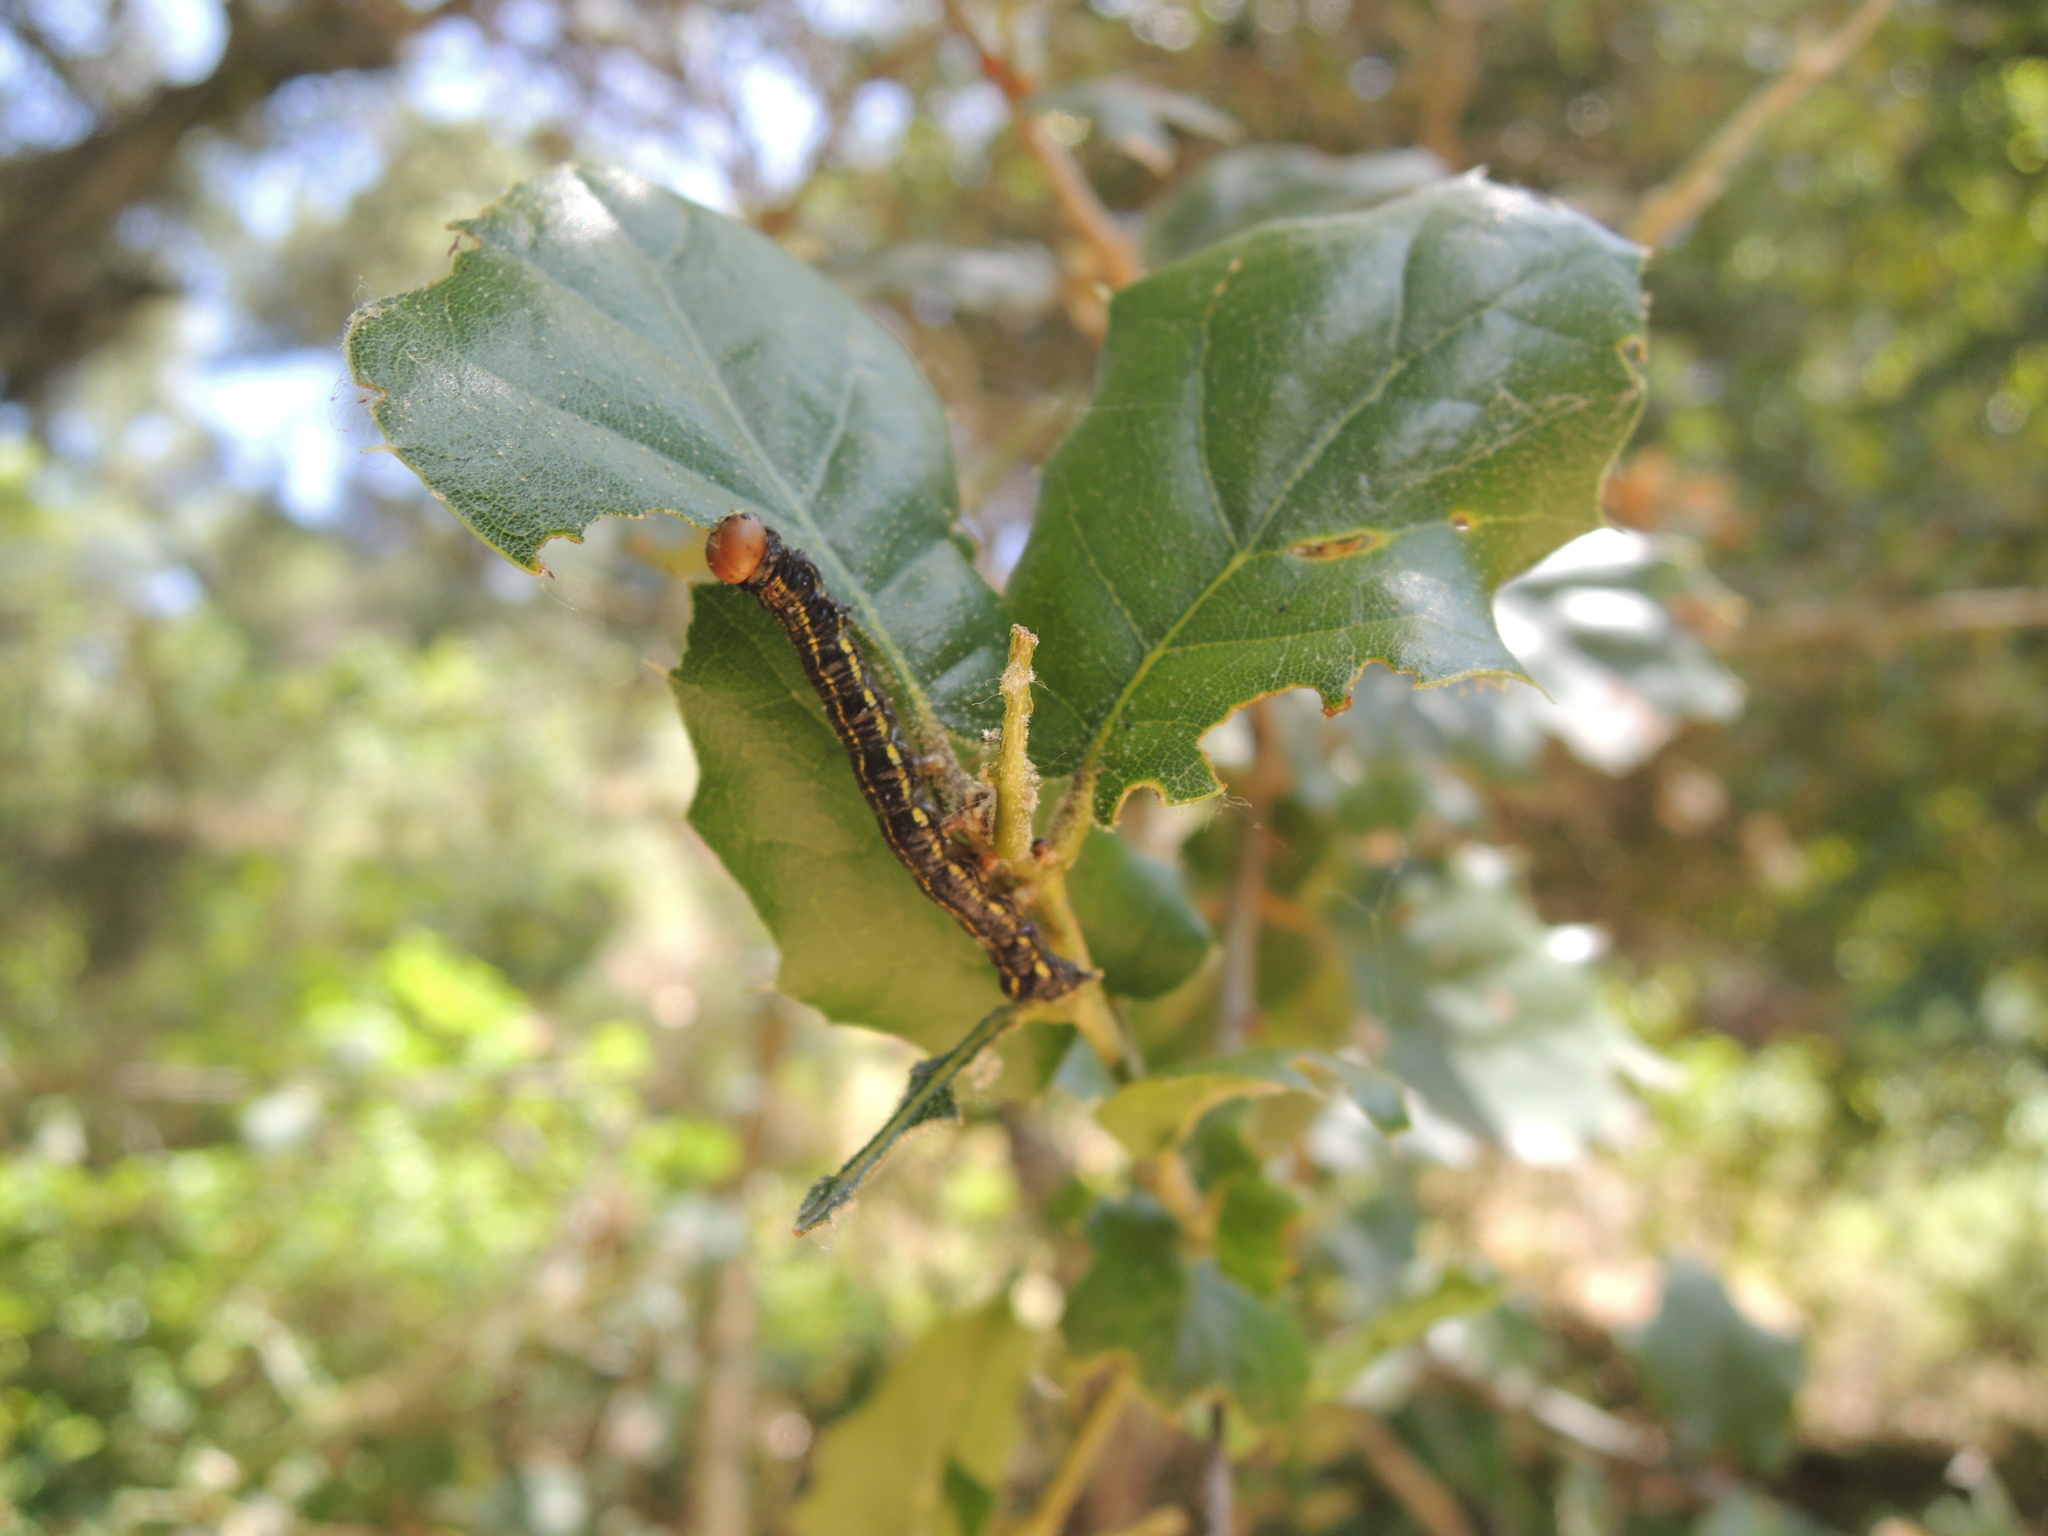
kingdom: Animalia
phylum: Arthropoda
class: Insecta
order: Lepidoptera
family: Notodontidae
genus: Phryganidia
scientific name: Phryganidia californica
